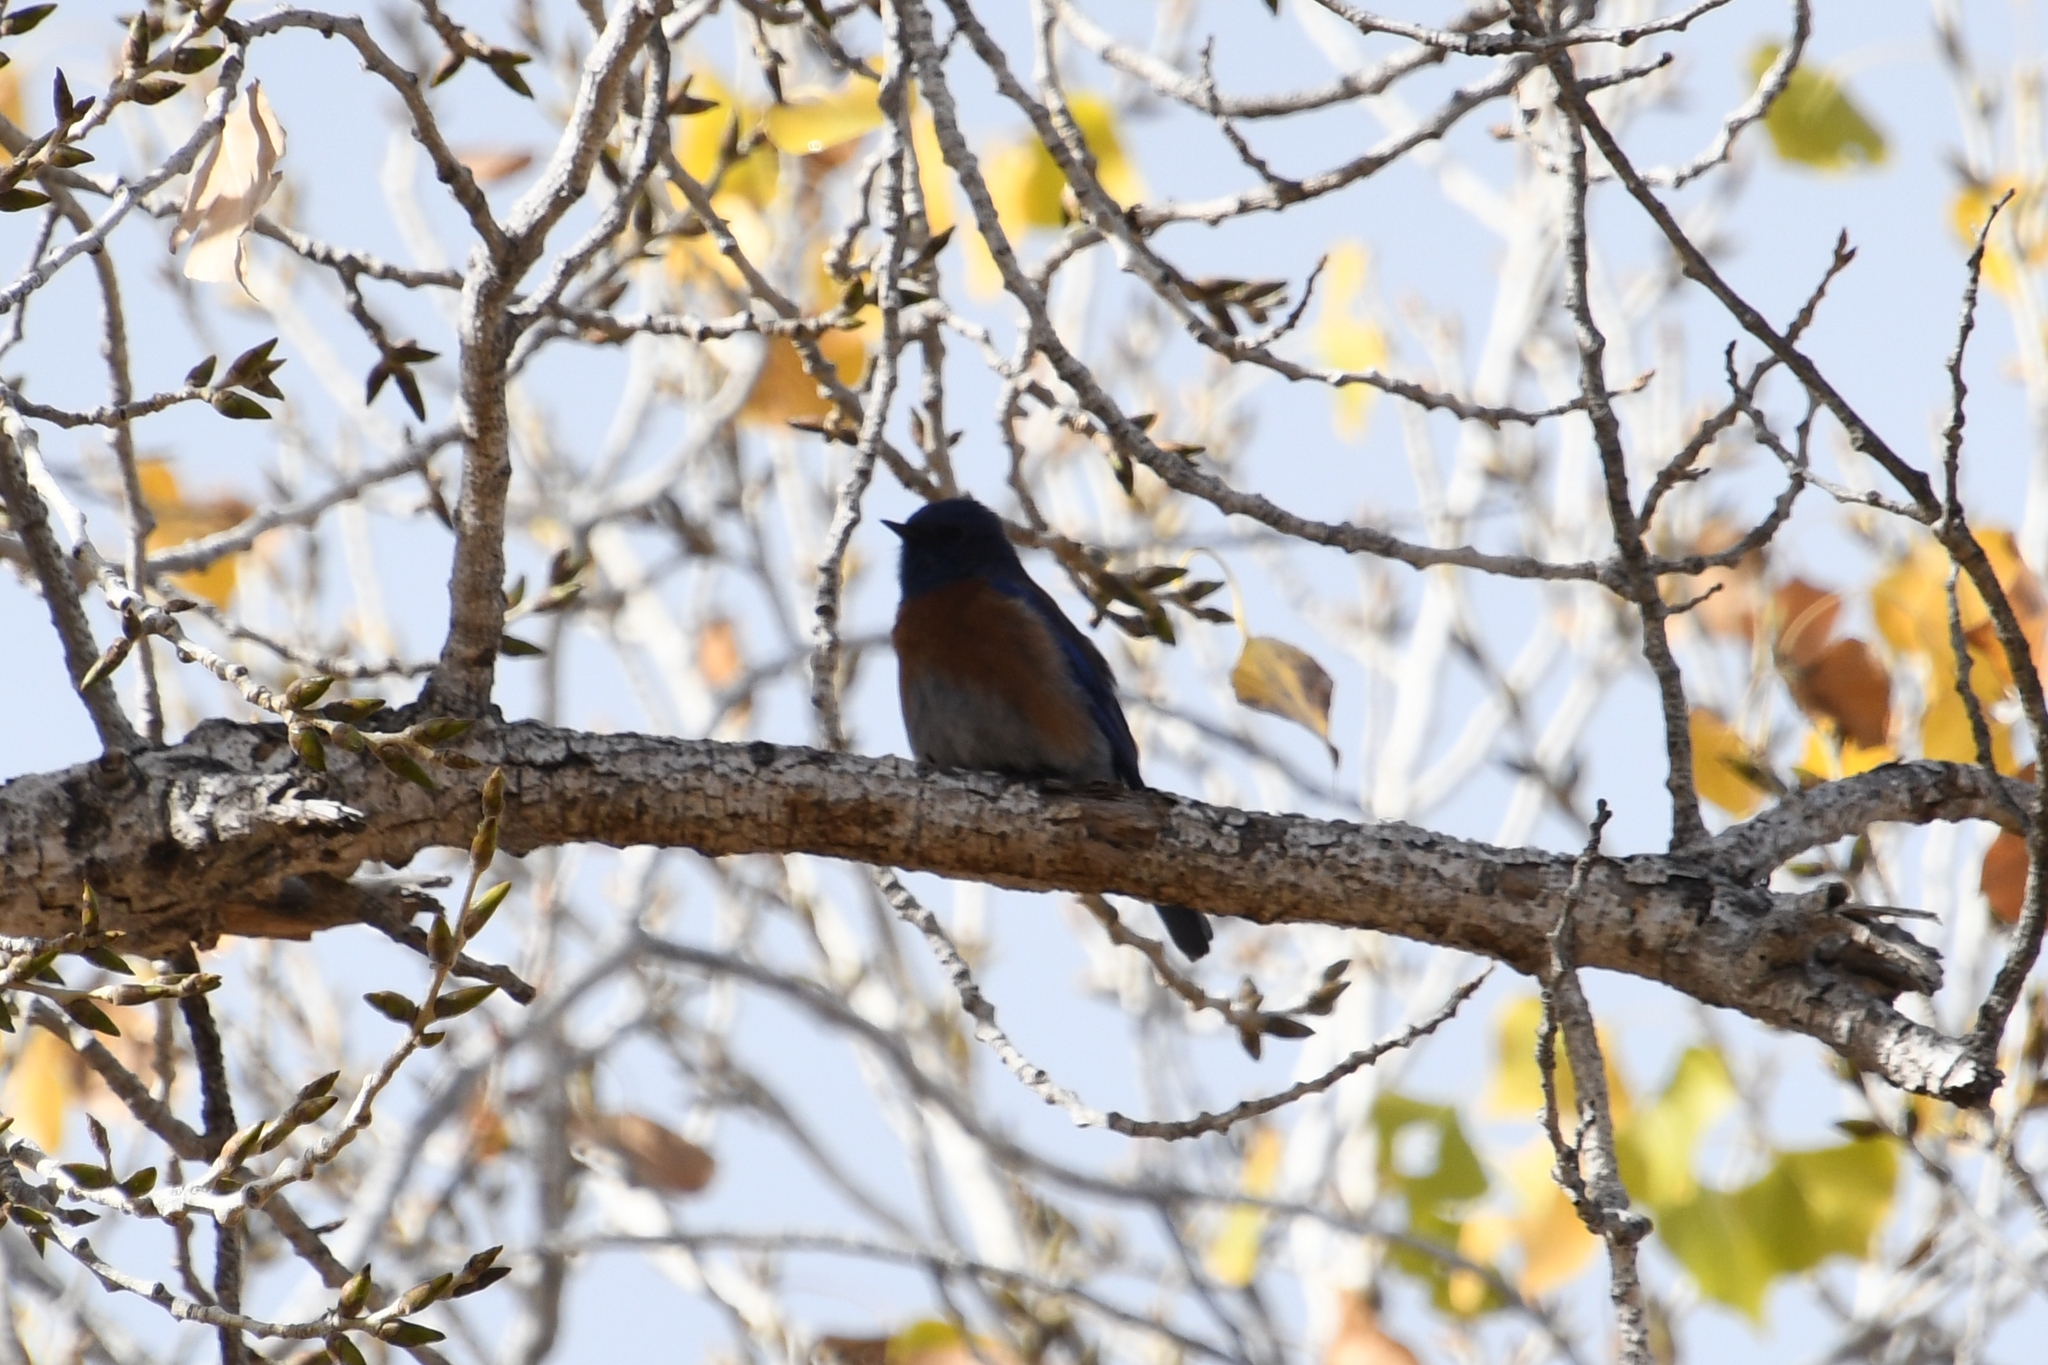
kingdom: Animalia
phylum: Chordata
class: Aves
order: Passeriformes
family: Turdidae
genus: Sialia
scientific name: Sialia mexicana
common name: Western bluebird
